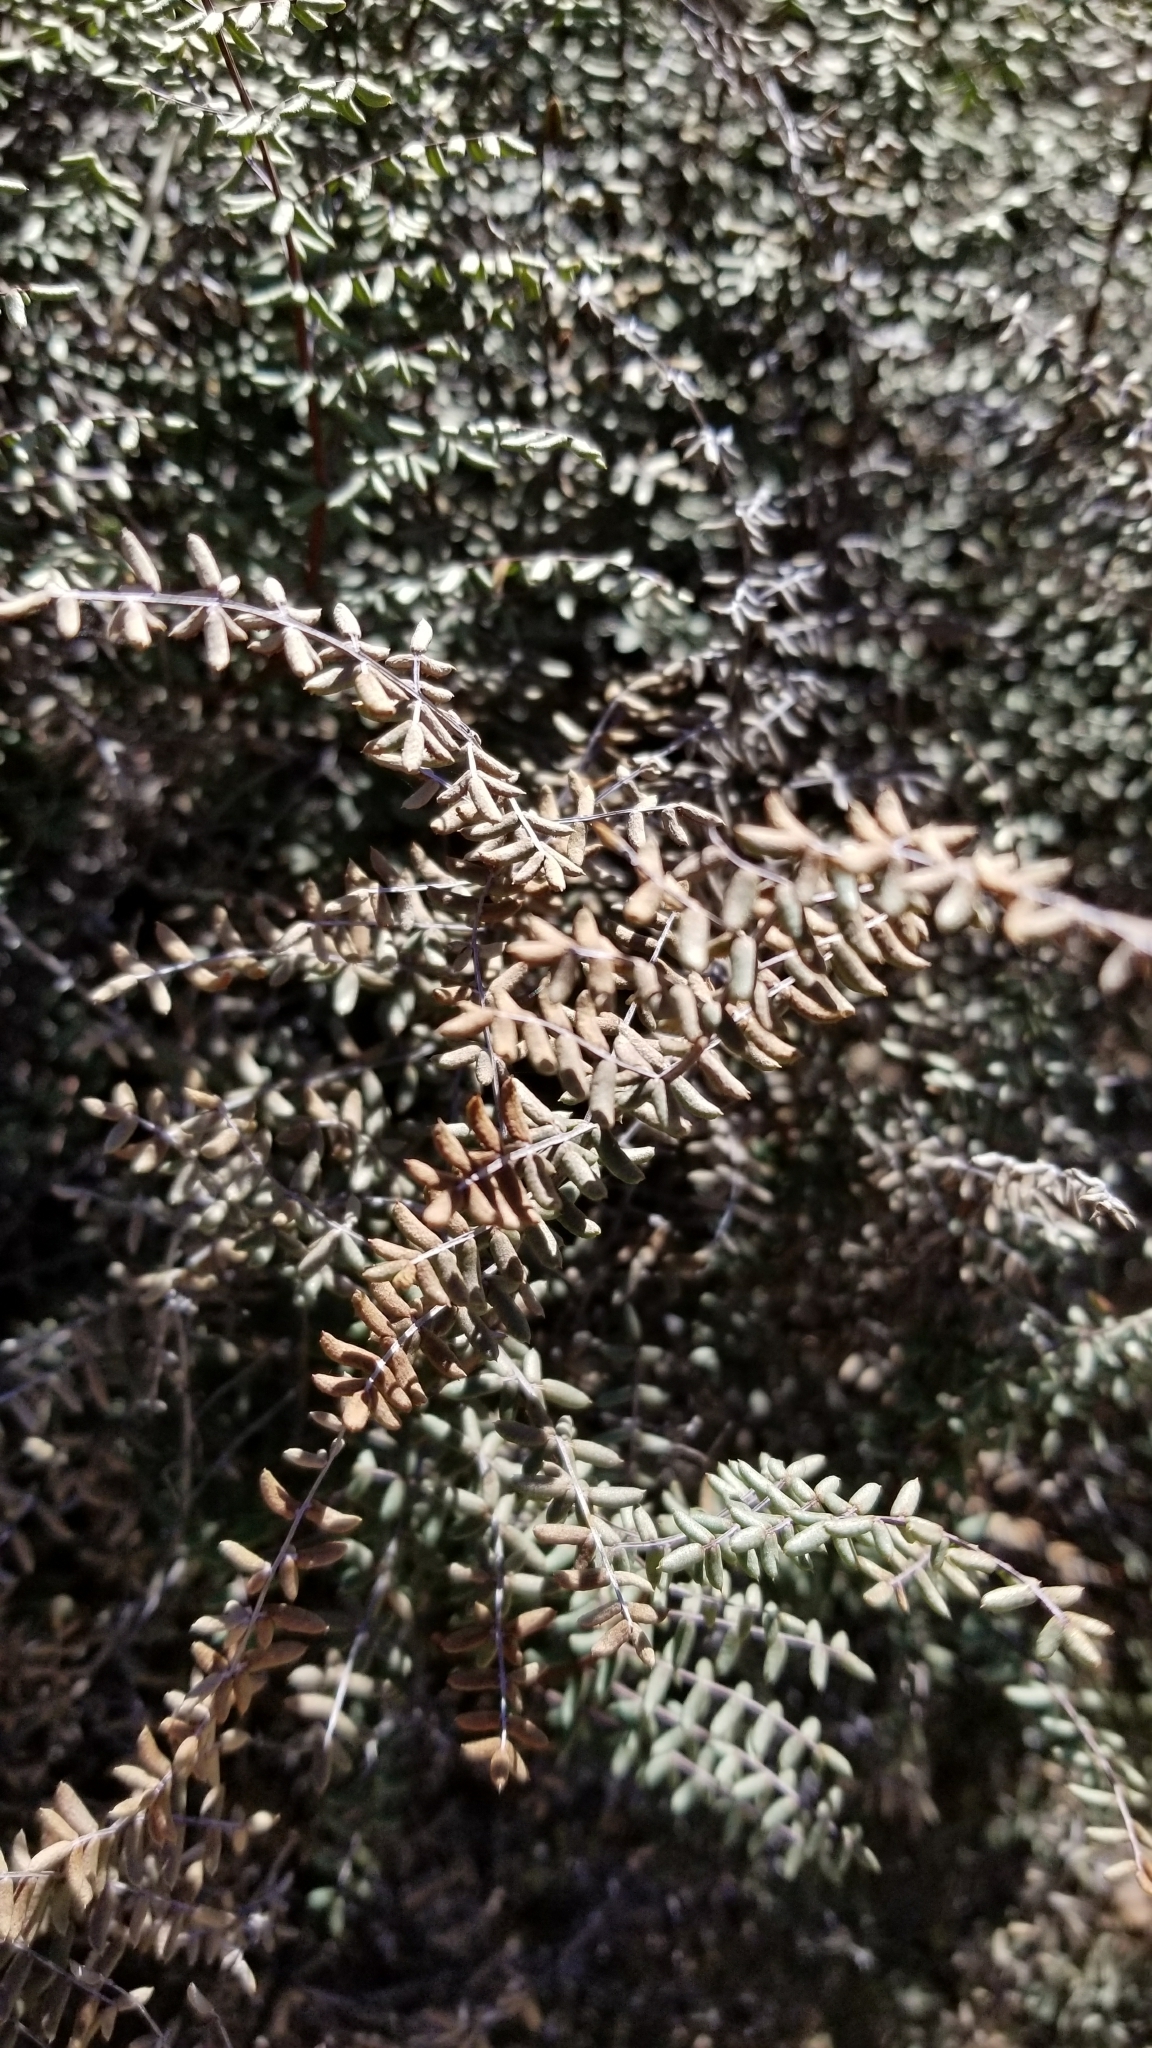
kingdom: Plantae
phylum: Tracheophyta
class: Polypodiopsida
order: Polypodiales
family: Pteridaceae
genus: Pellaea
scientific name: Pellaea mucronata
